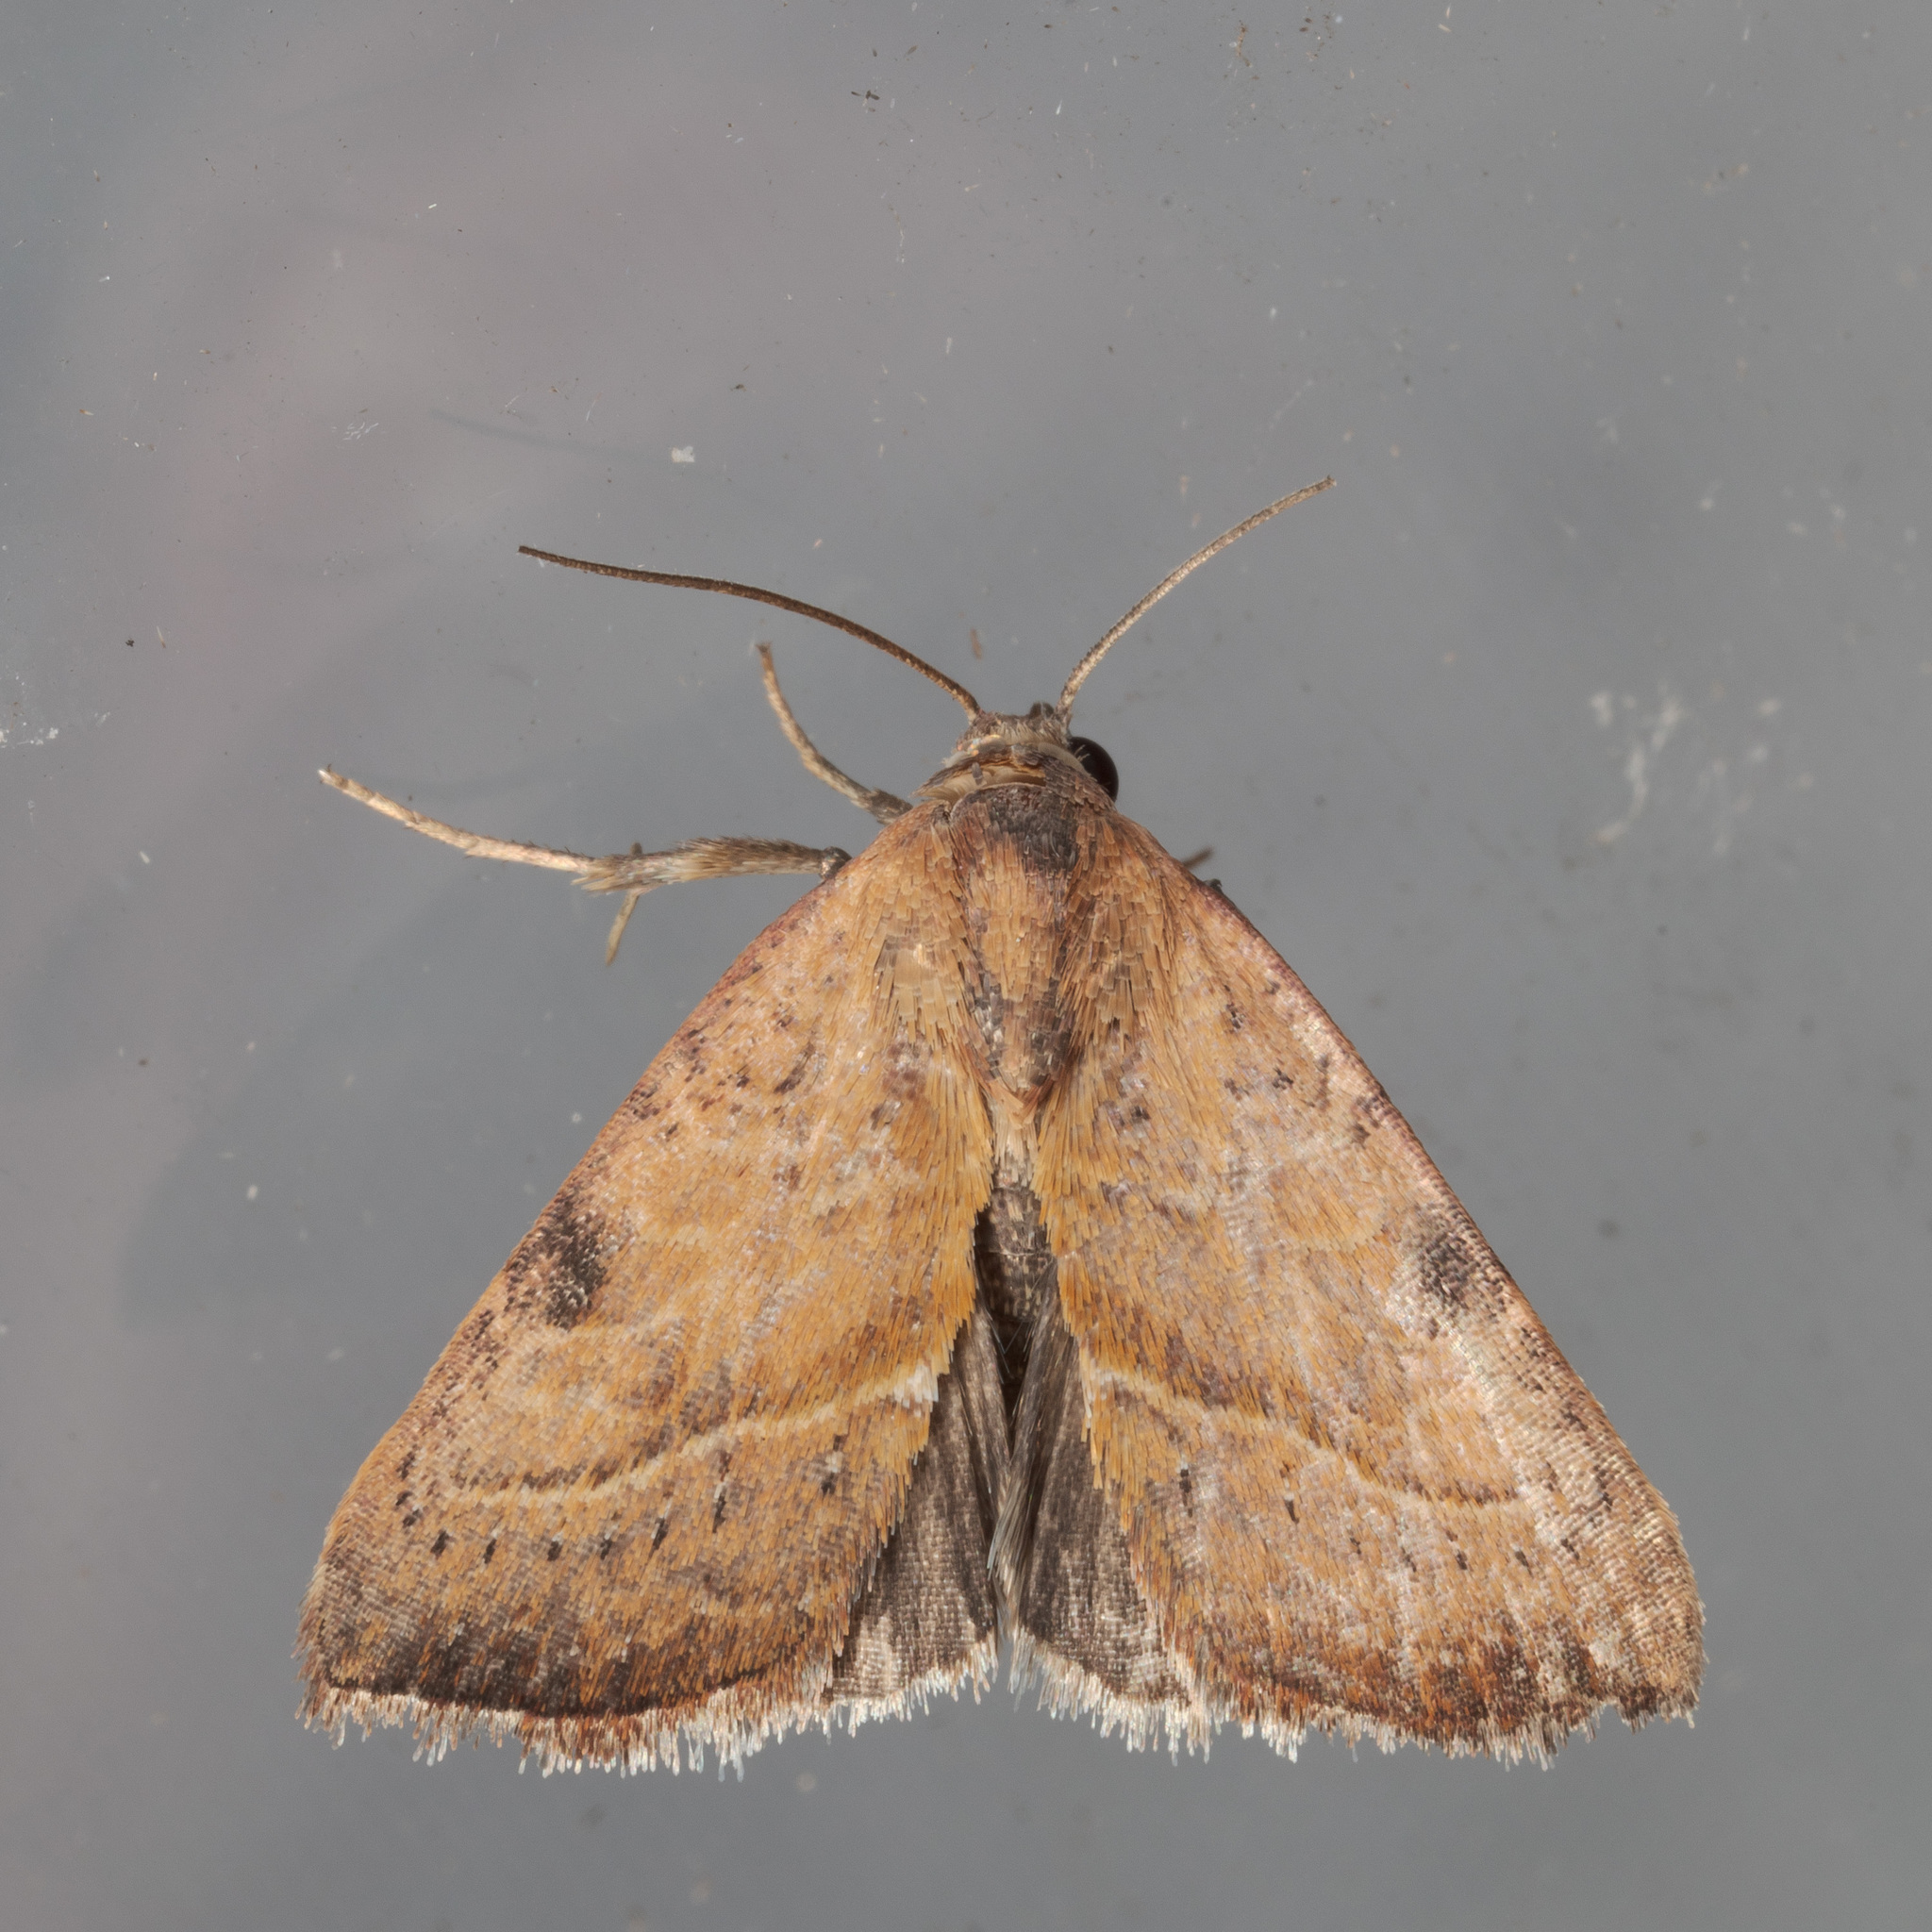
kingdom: Animalia
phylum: Arthropoda
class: Insecta
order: Lepidoptera
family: Noctuidae
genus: Galgula
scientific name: Galgula partita
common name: Wedgeling
